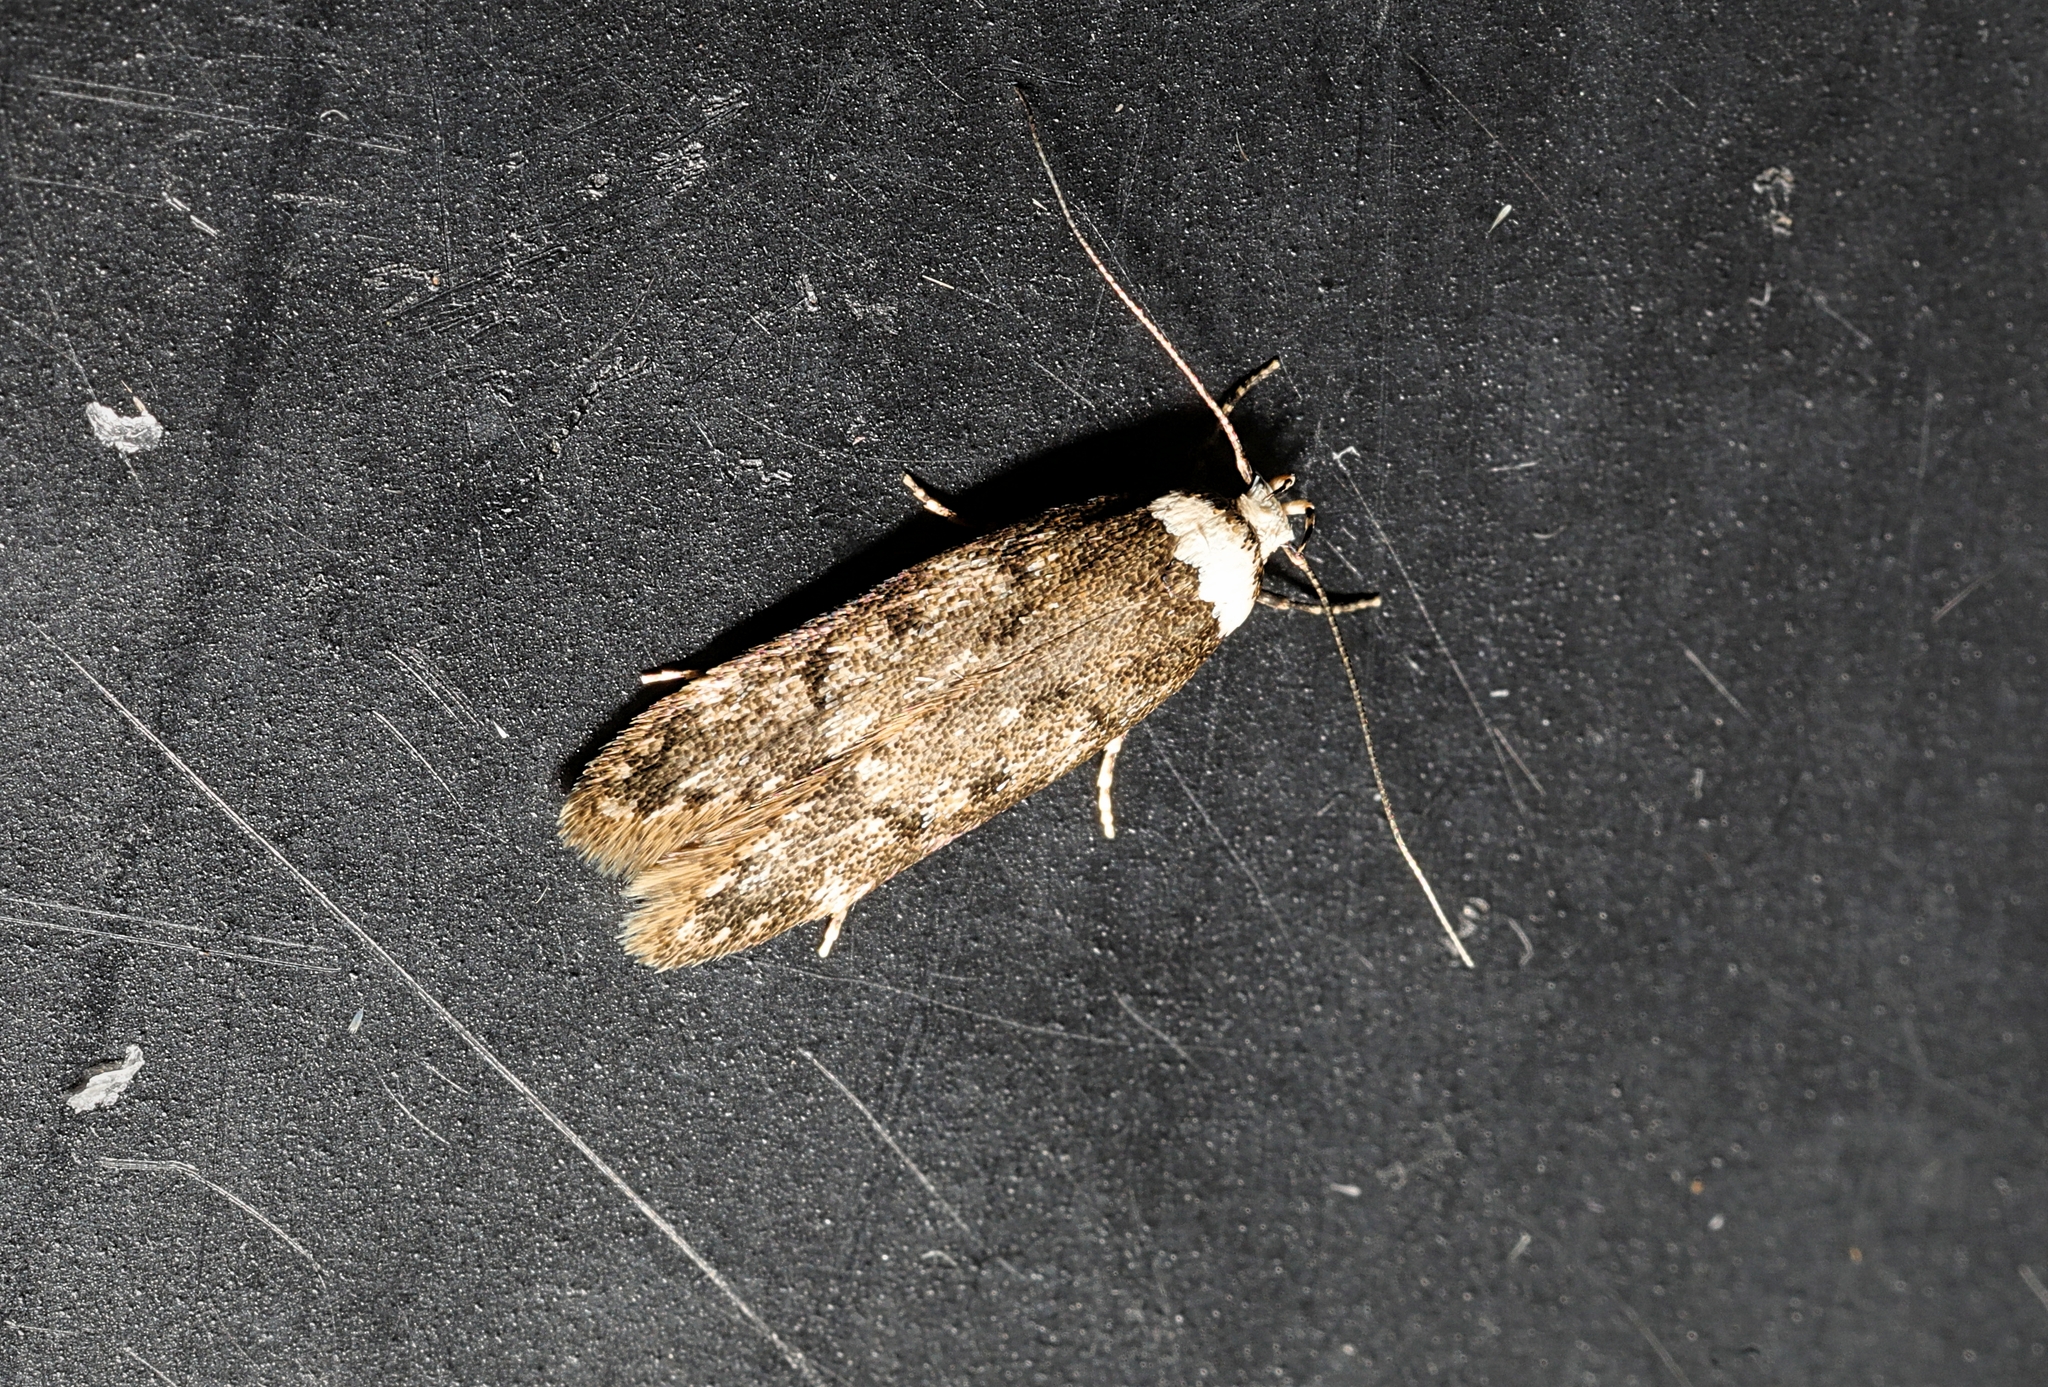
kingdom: Animalia
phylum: Arthropoda
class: Insecta
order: Lepidoptera
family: Oecophoridae
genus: Endrosis
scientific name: Endrosis sarcitrella
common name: White-shouldered house moth
